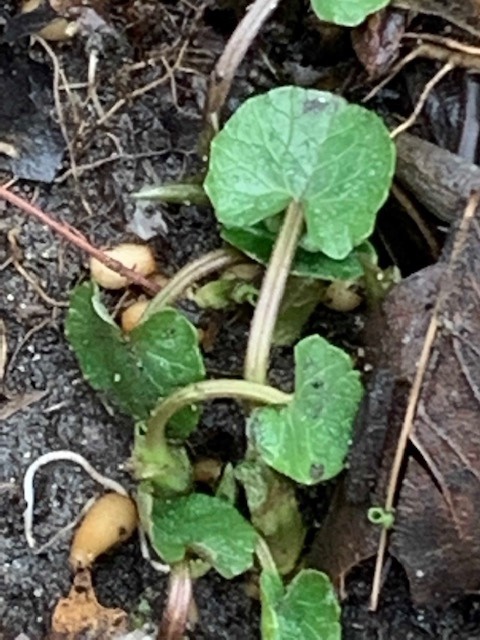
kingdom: Plantae
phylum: Tracheophyta
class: Magnoliopsida
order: Ranunculales
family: Ranunculaceae
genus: Ficaria
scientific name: Ficaria verna
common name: Lesser celandine
